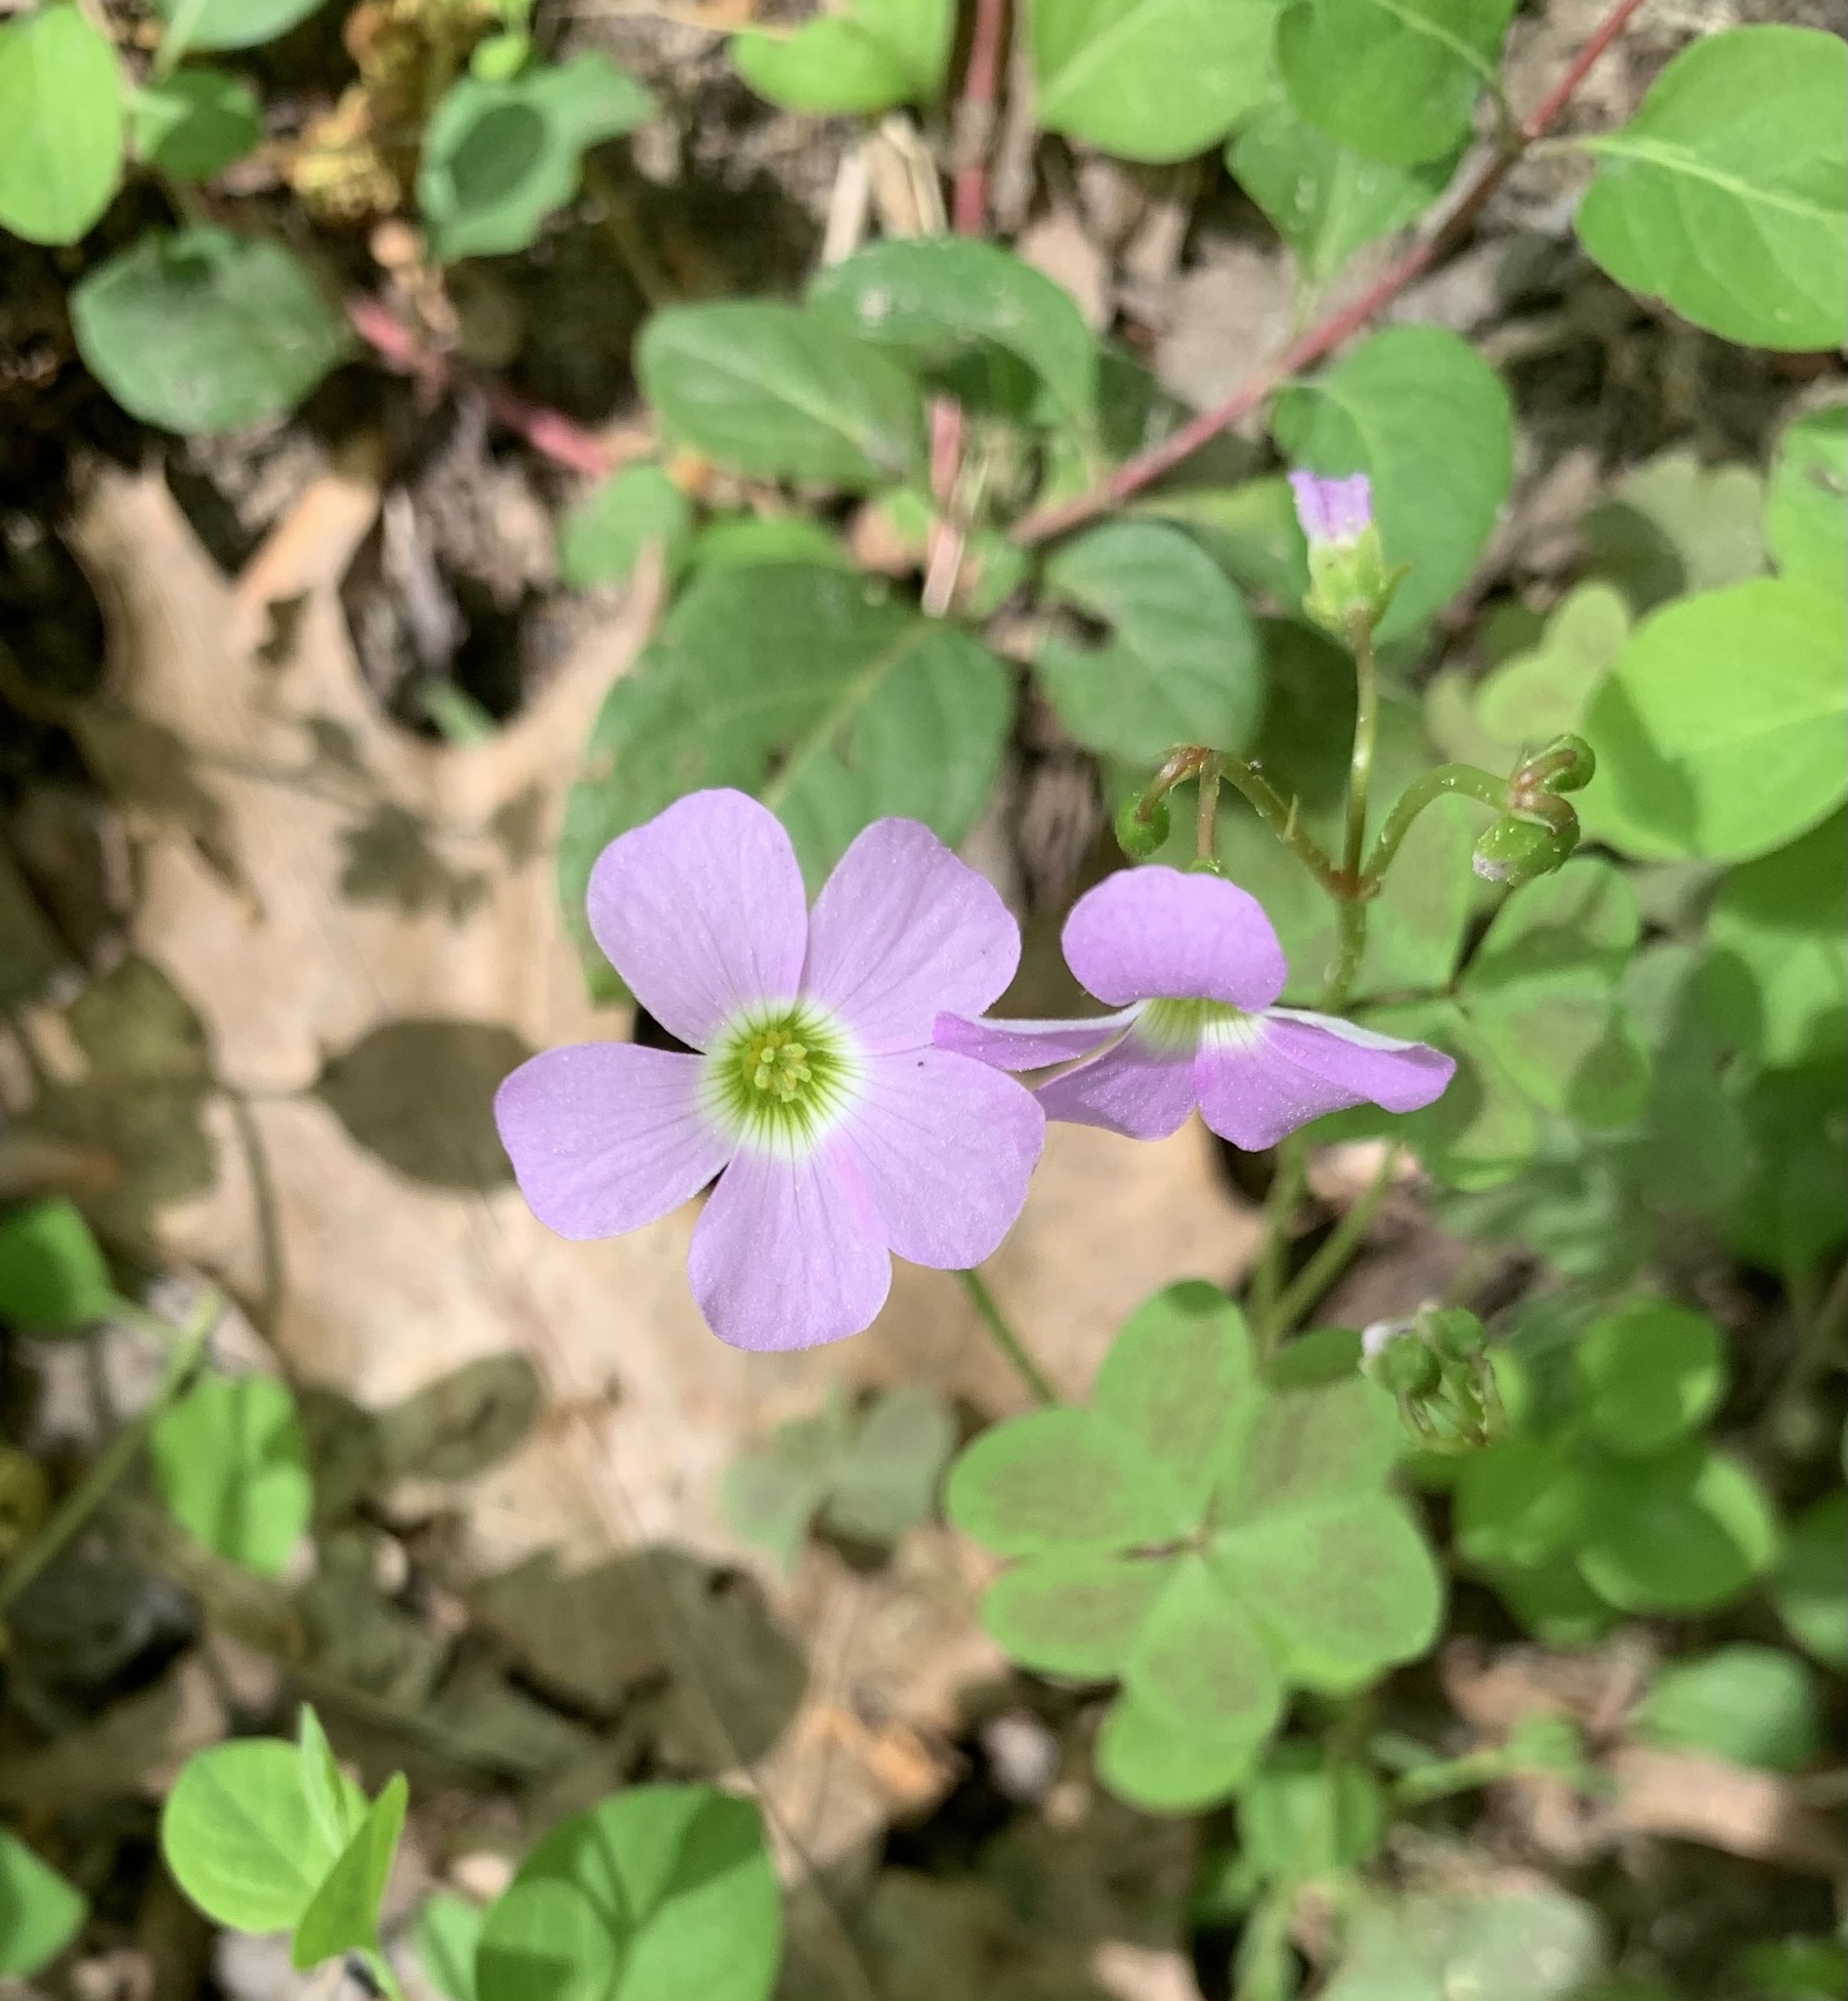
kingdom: Plantae
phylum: Tracheophyta
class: Magnoliopsida
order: Oxalidales
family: Oxalidaceae
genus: Oxalis
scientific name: Oxalis violacea
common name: Violet wood-sorrel
